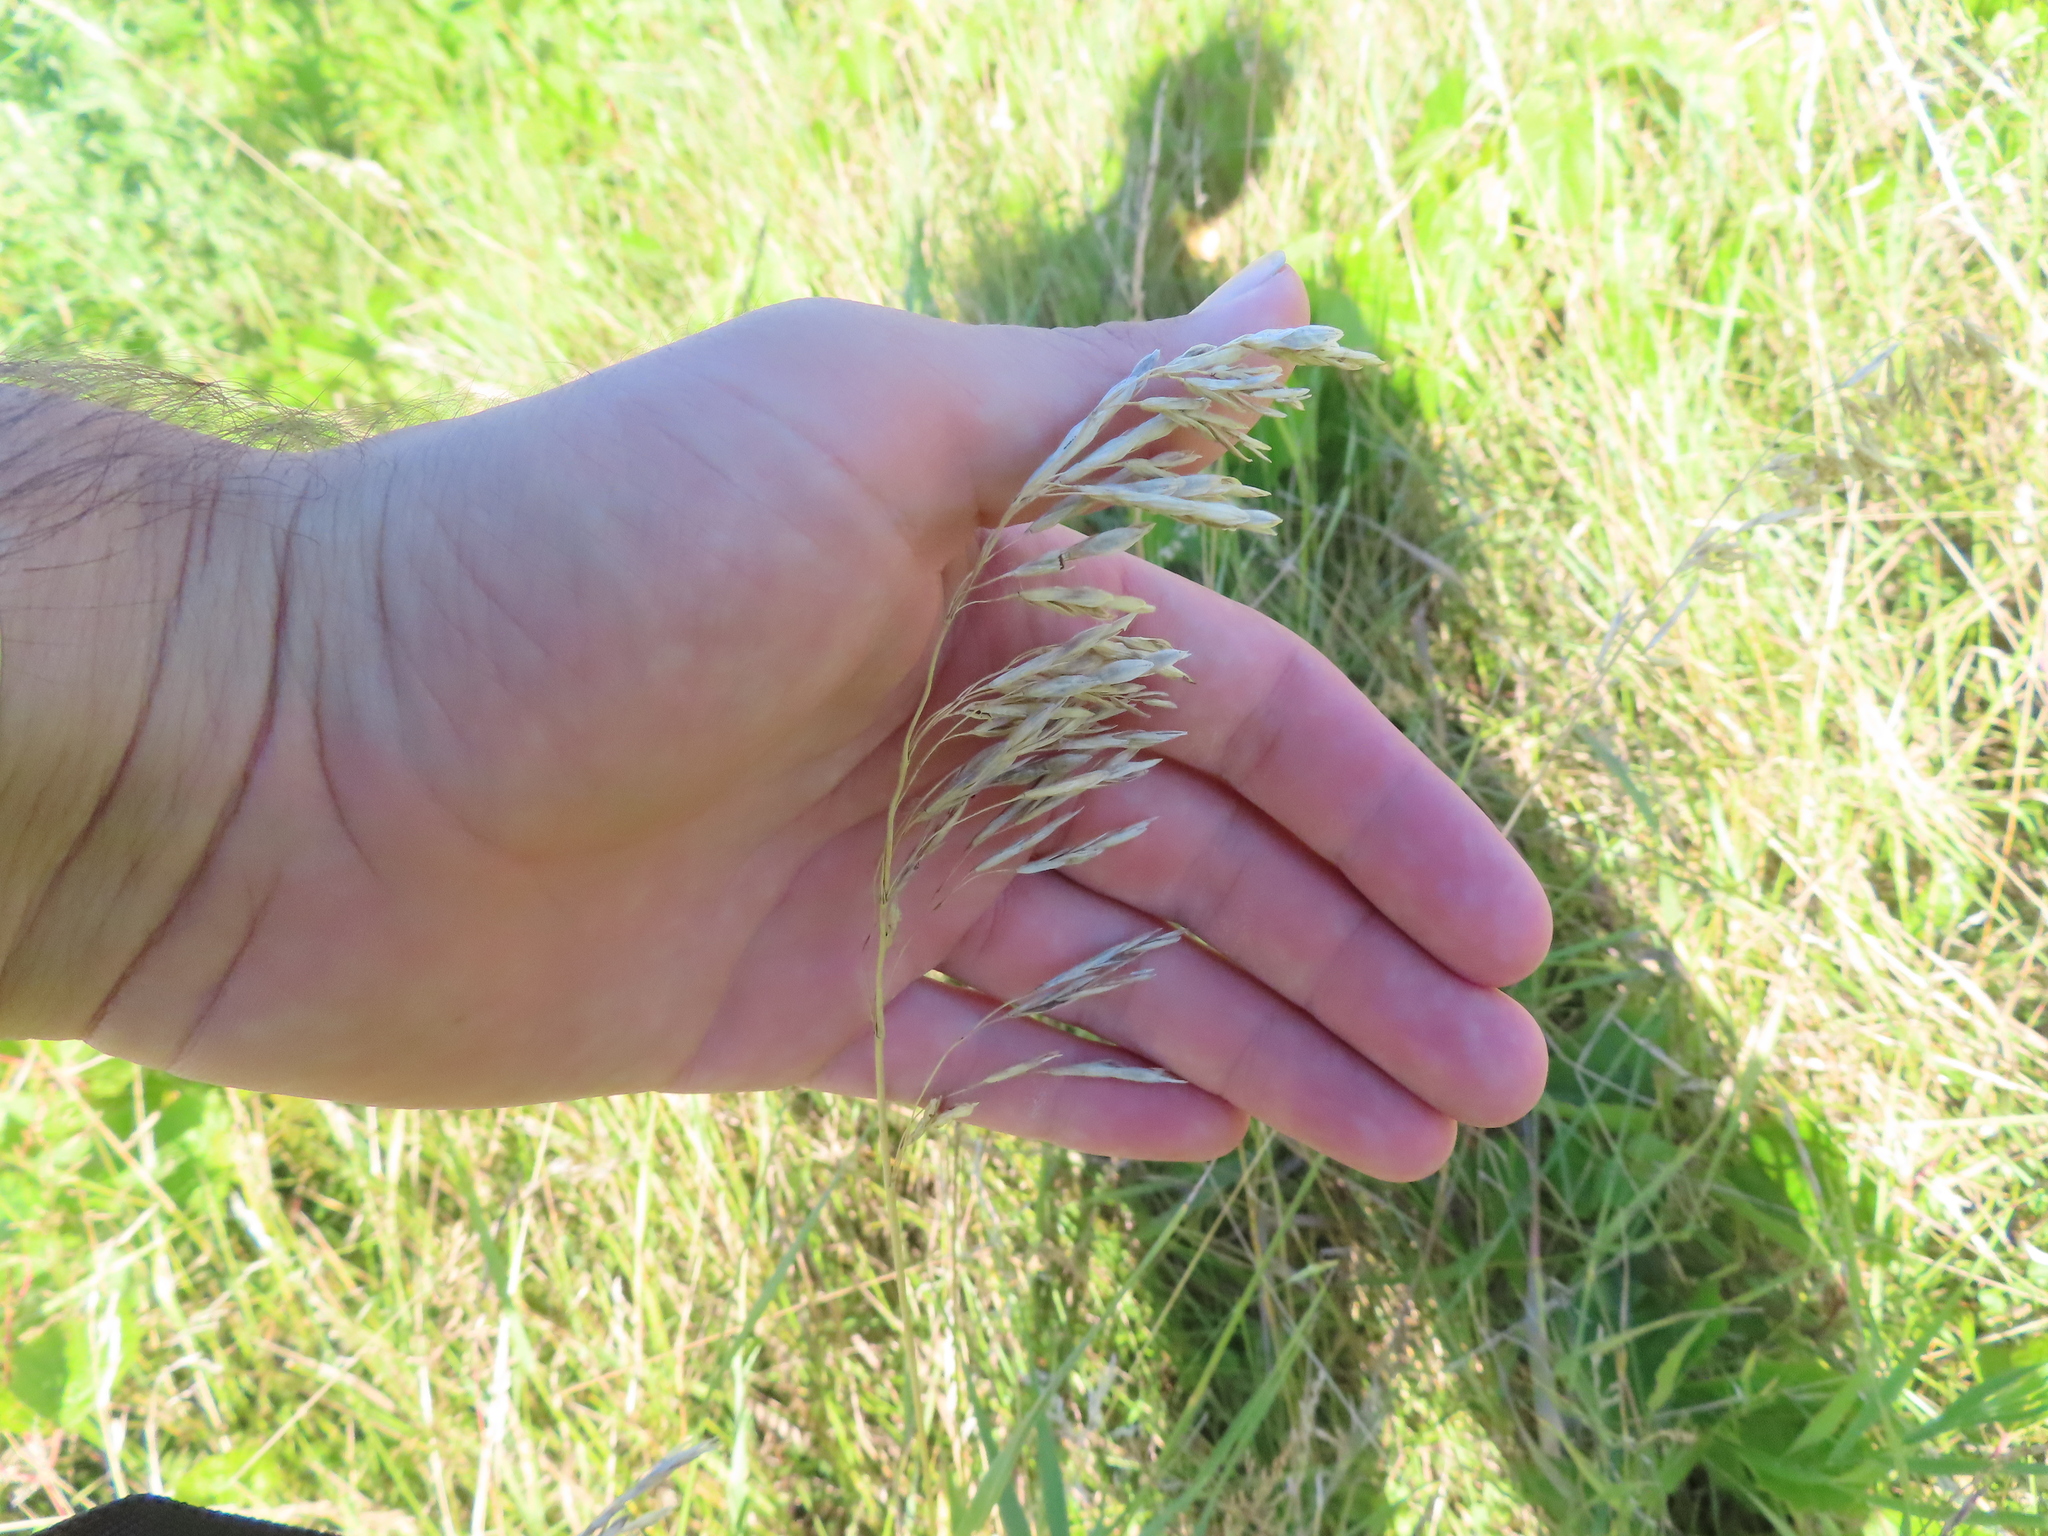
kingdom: Plantae
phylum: Tracheophyta
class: Liliopsida
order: Poales
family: Poaceae
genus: Bromus
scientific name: Bromus inermis
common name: Smooth brome
